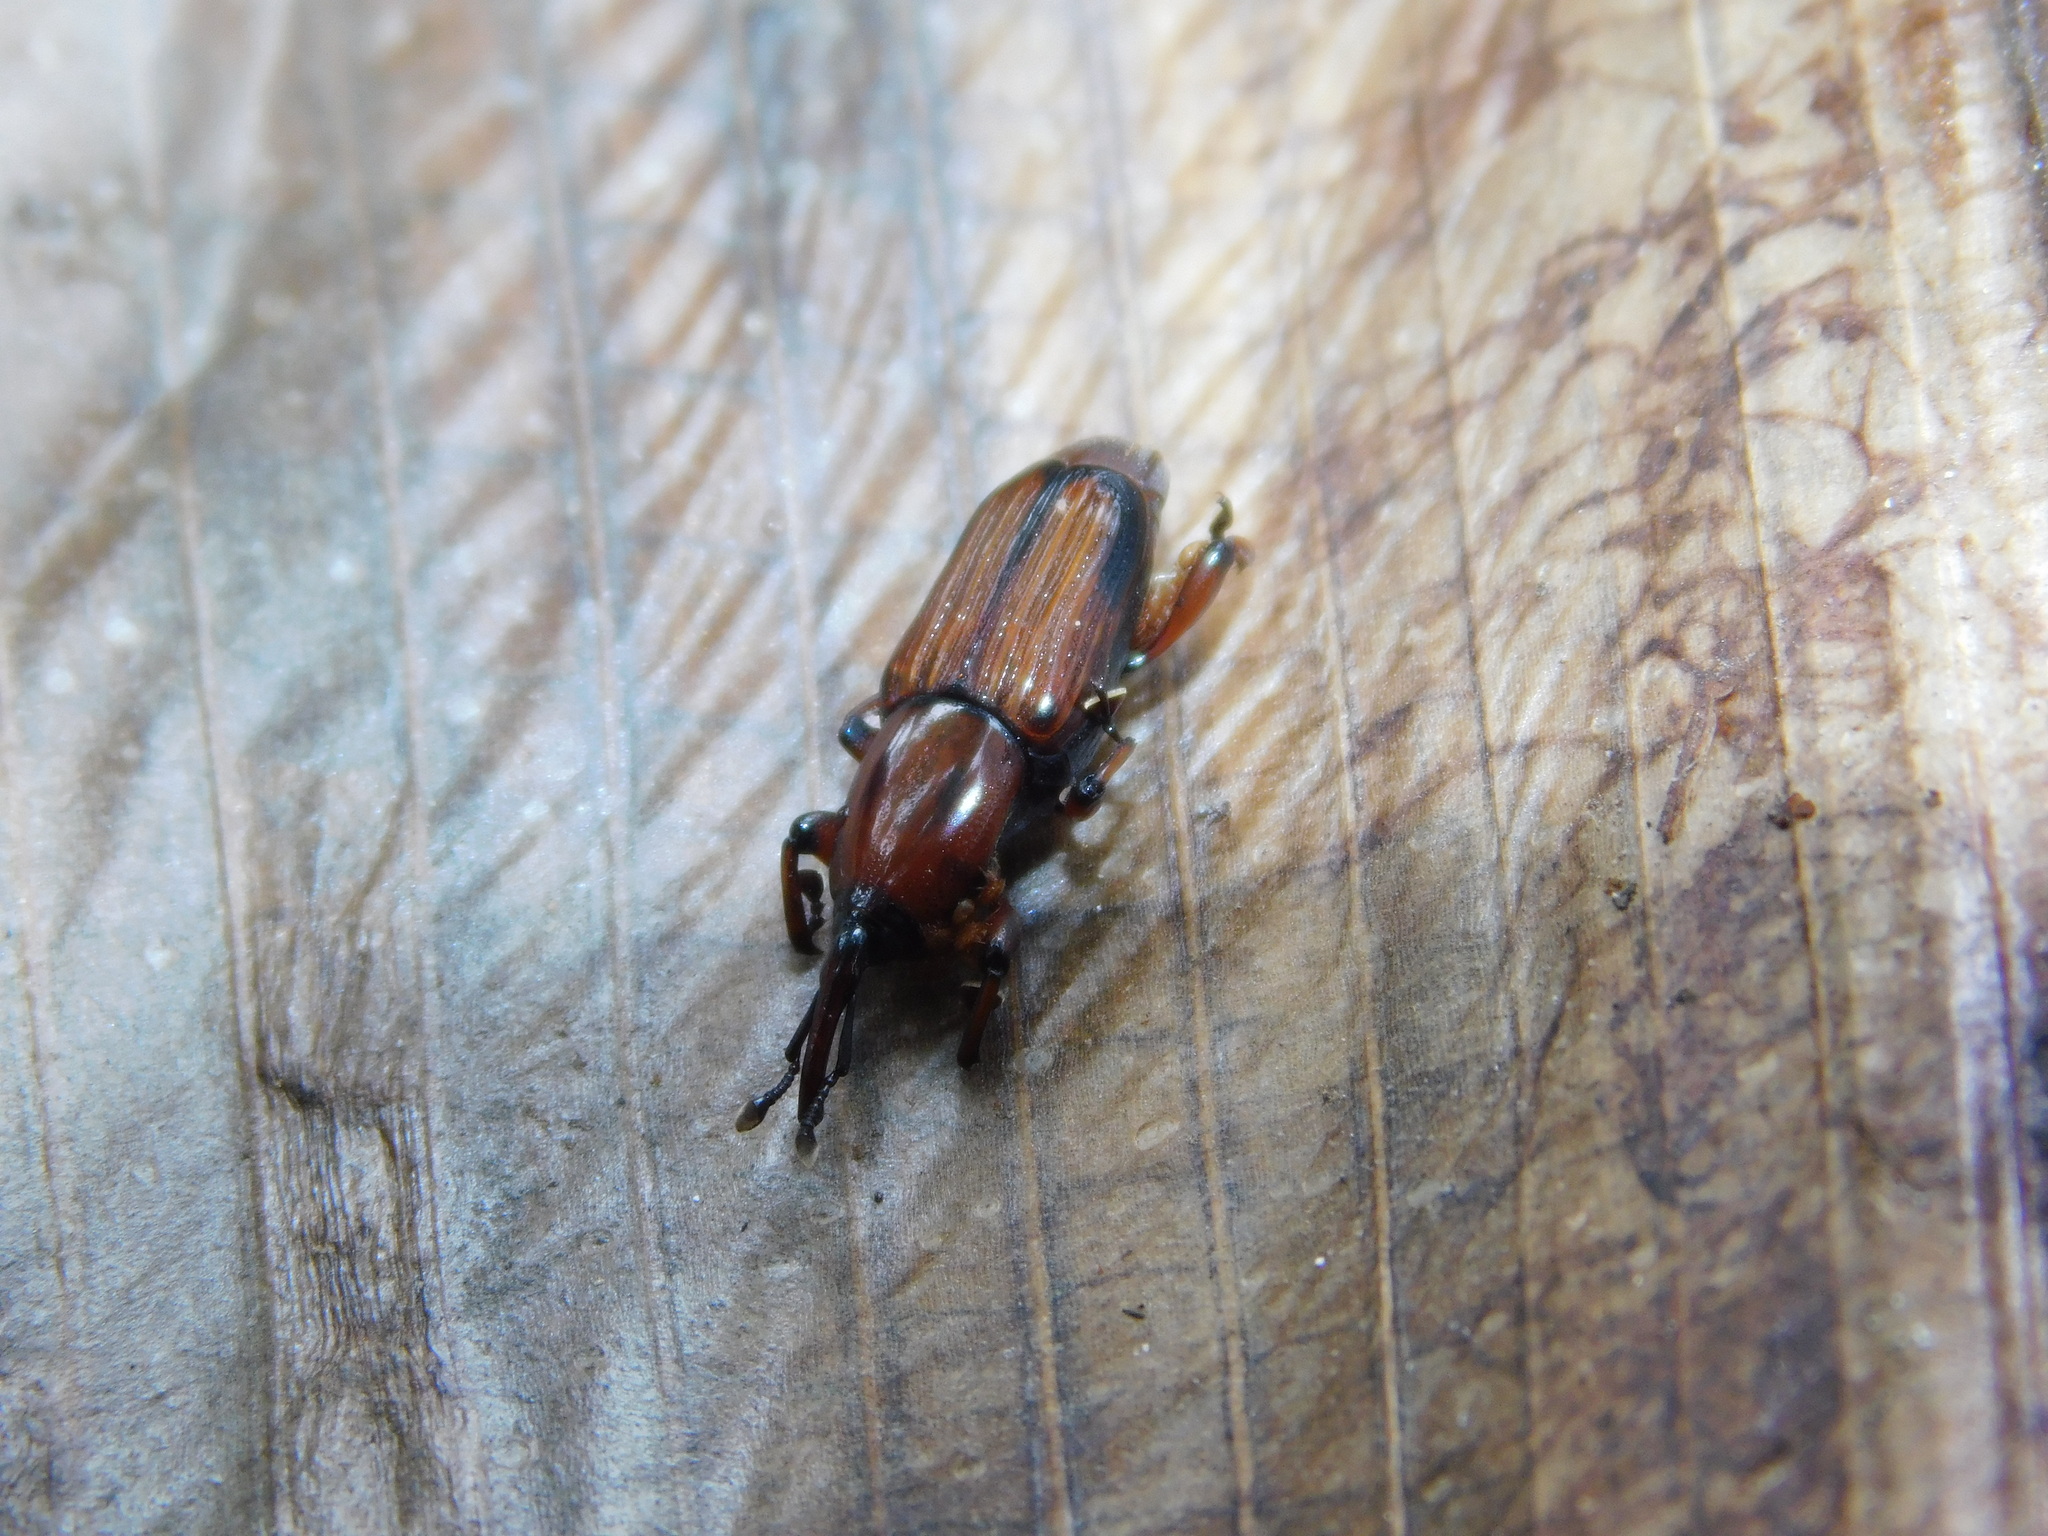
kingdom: Animalia
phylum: Arthropoda
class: Insecta
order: Coleoptera
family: Dryophthoridae
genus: Odoiporus
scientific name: Odoiporus longicollis
